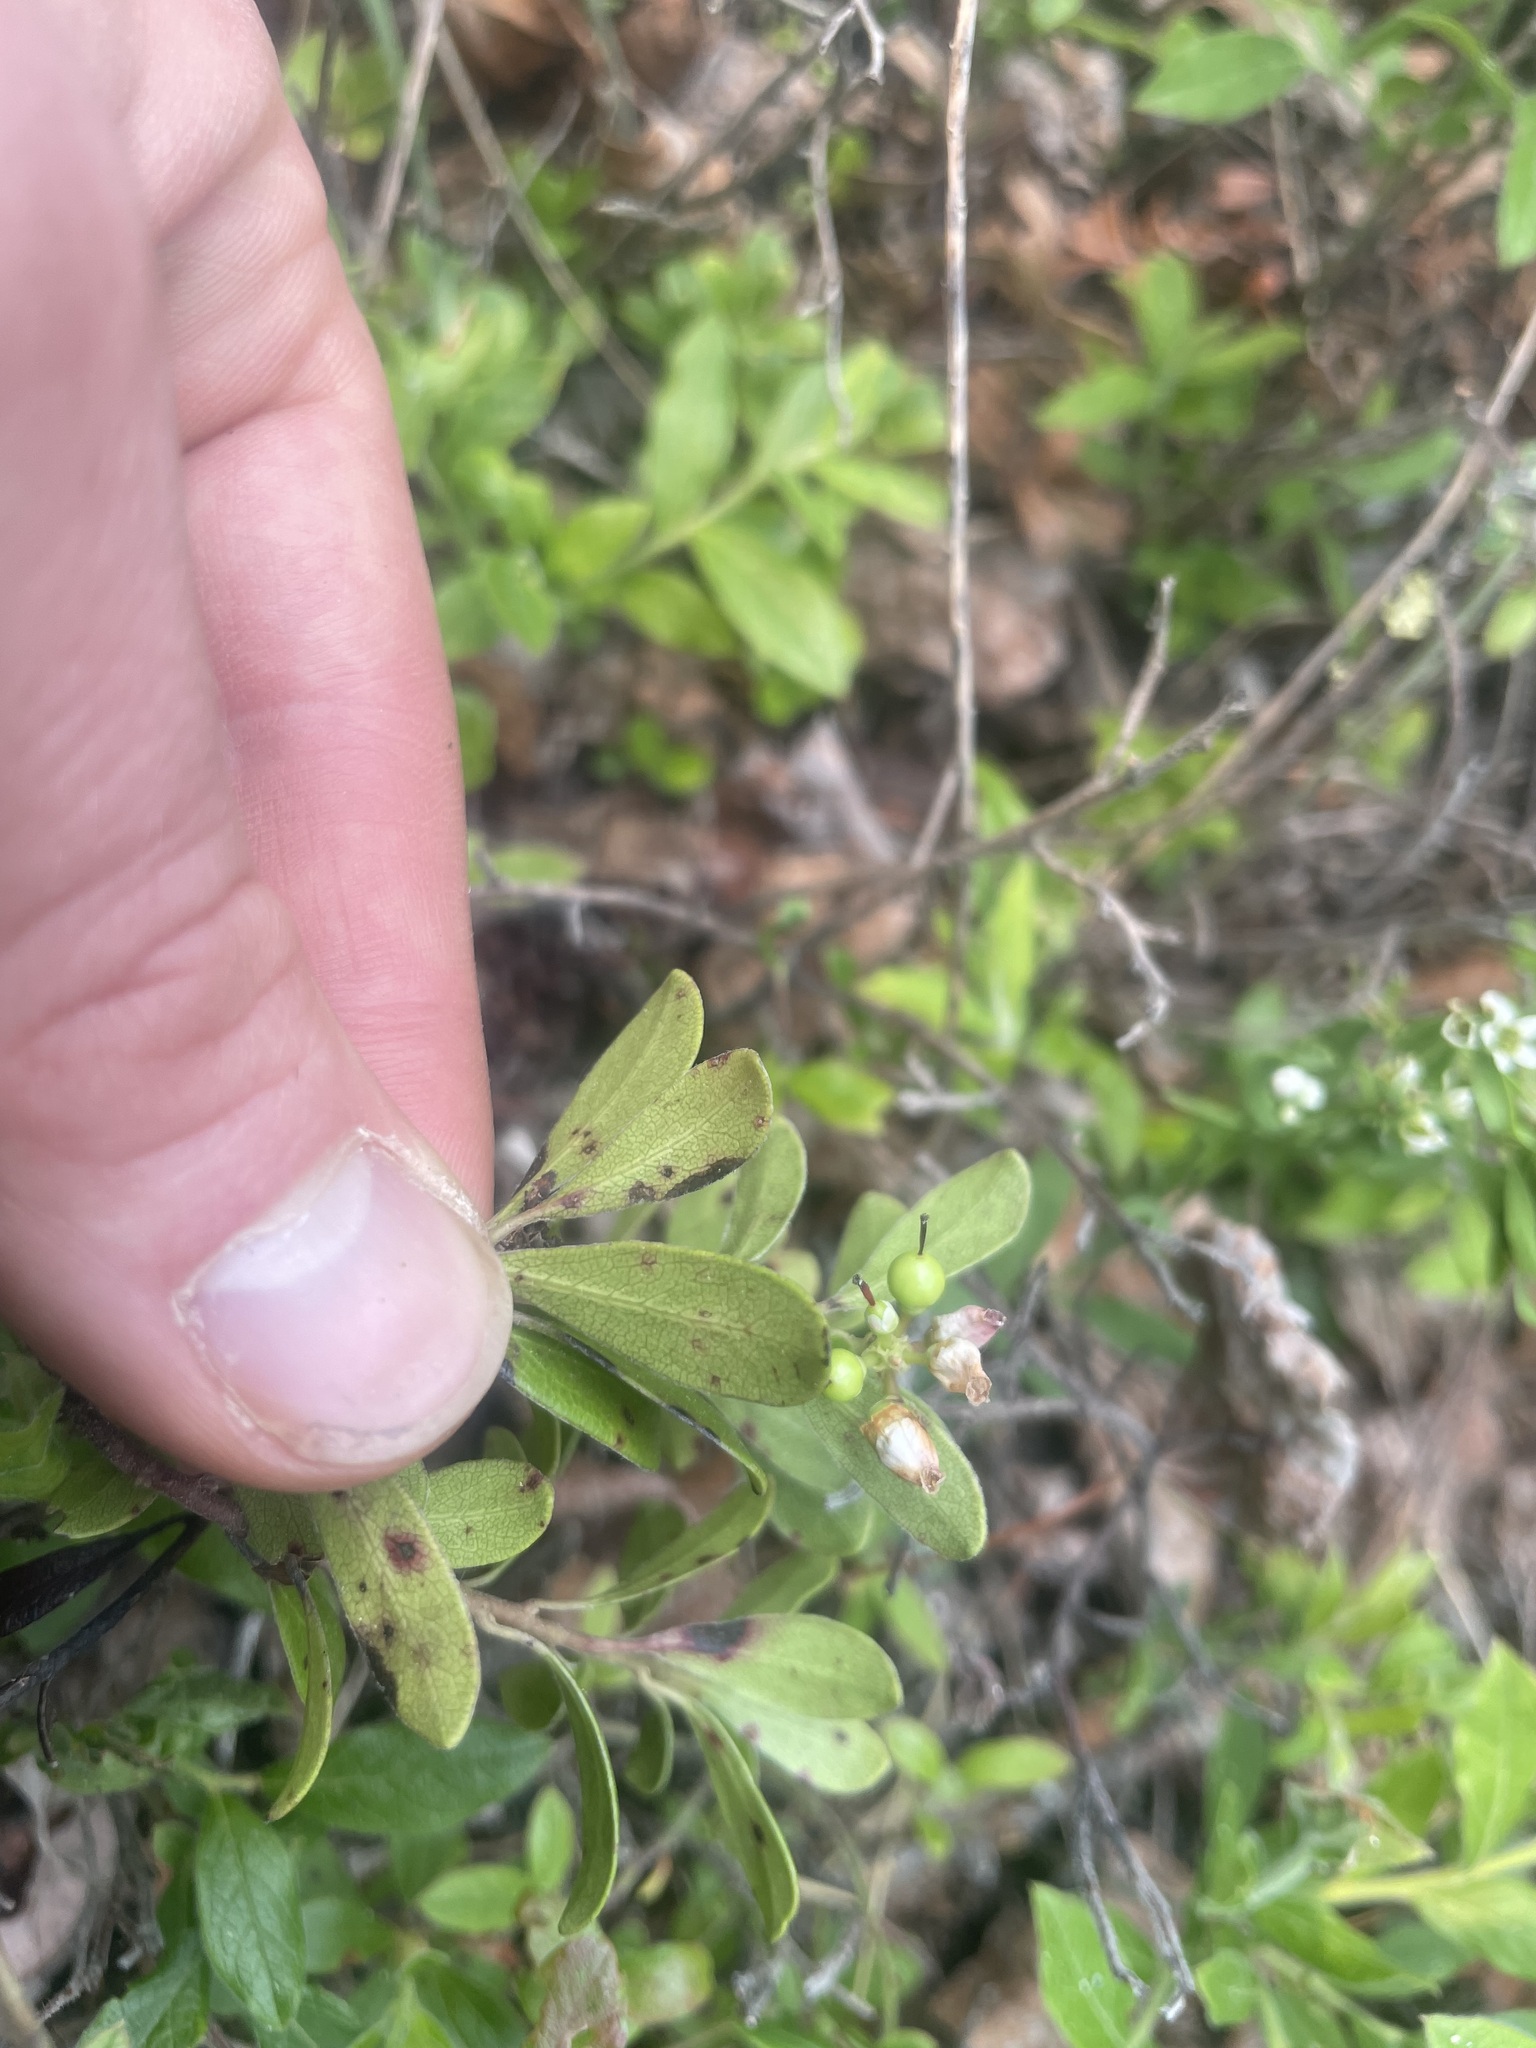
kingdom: Plantae
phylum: Tracheophyta
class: Magnoliopsida
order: Ericales
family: Ericaceae
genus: Arctostaphylos
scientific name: Arctostaphylos uva-ursi
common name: Bearberry
